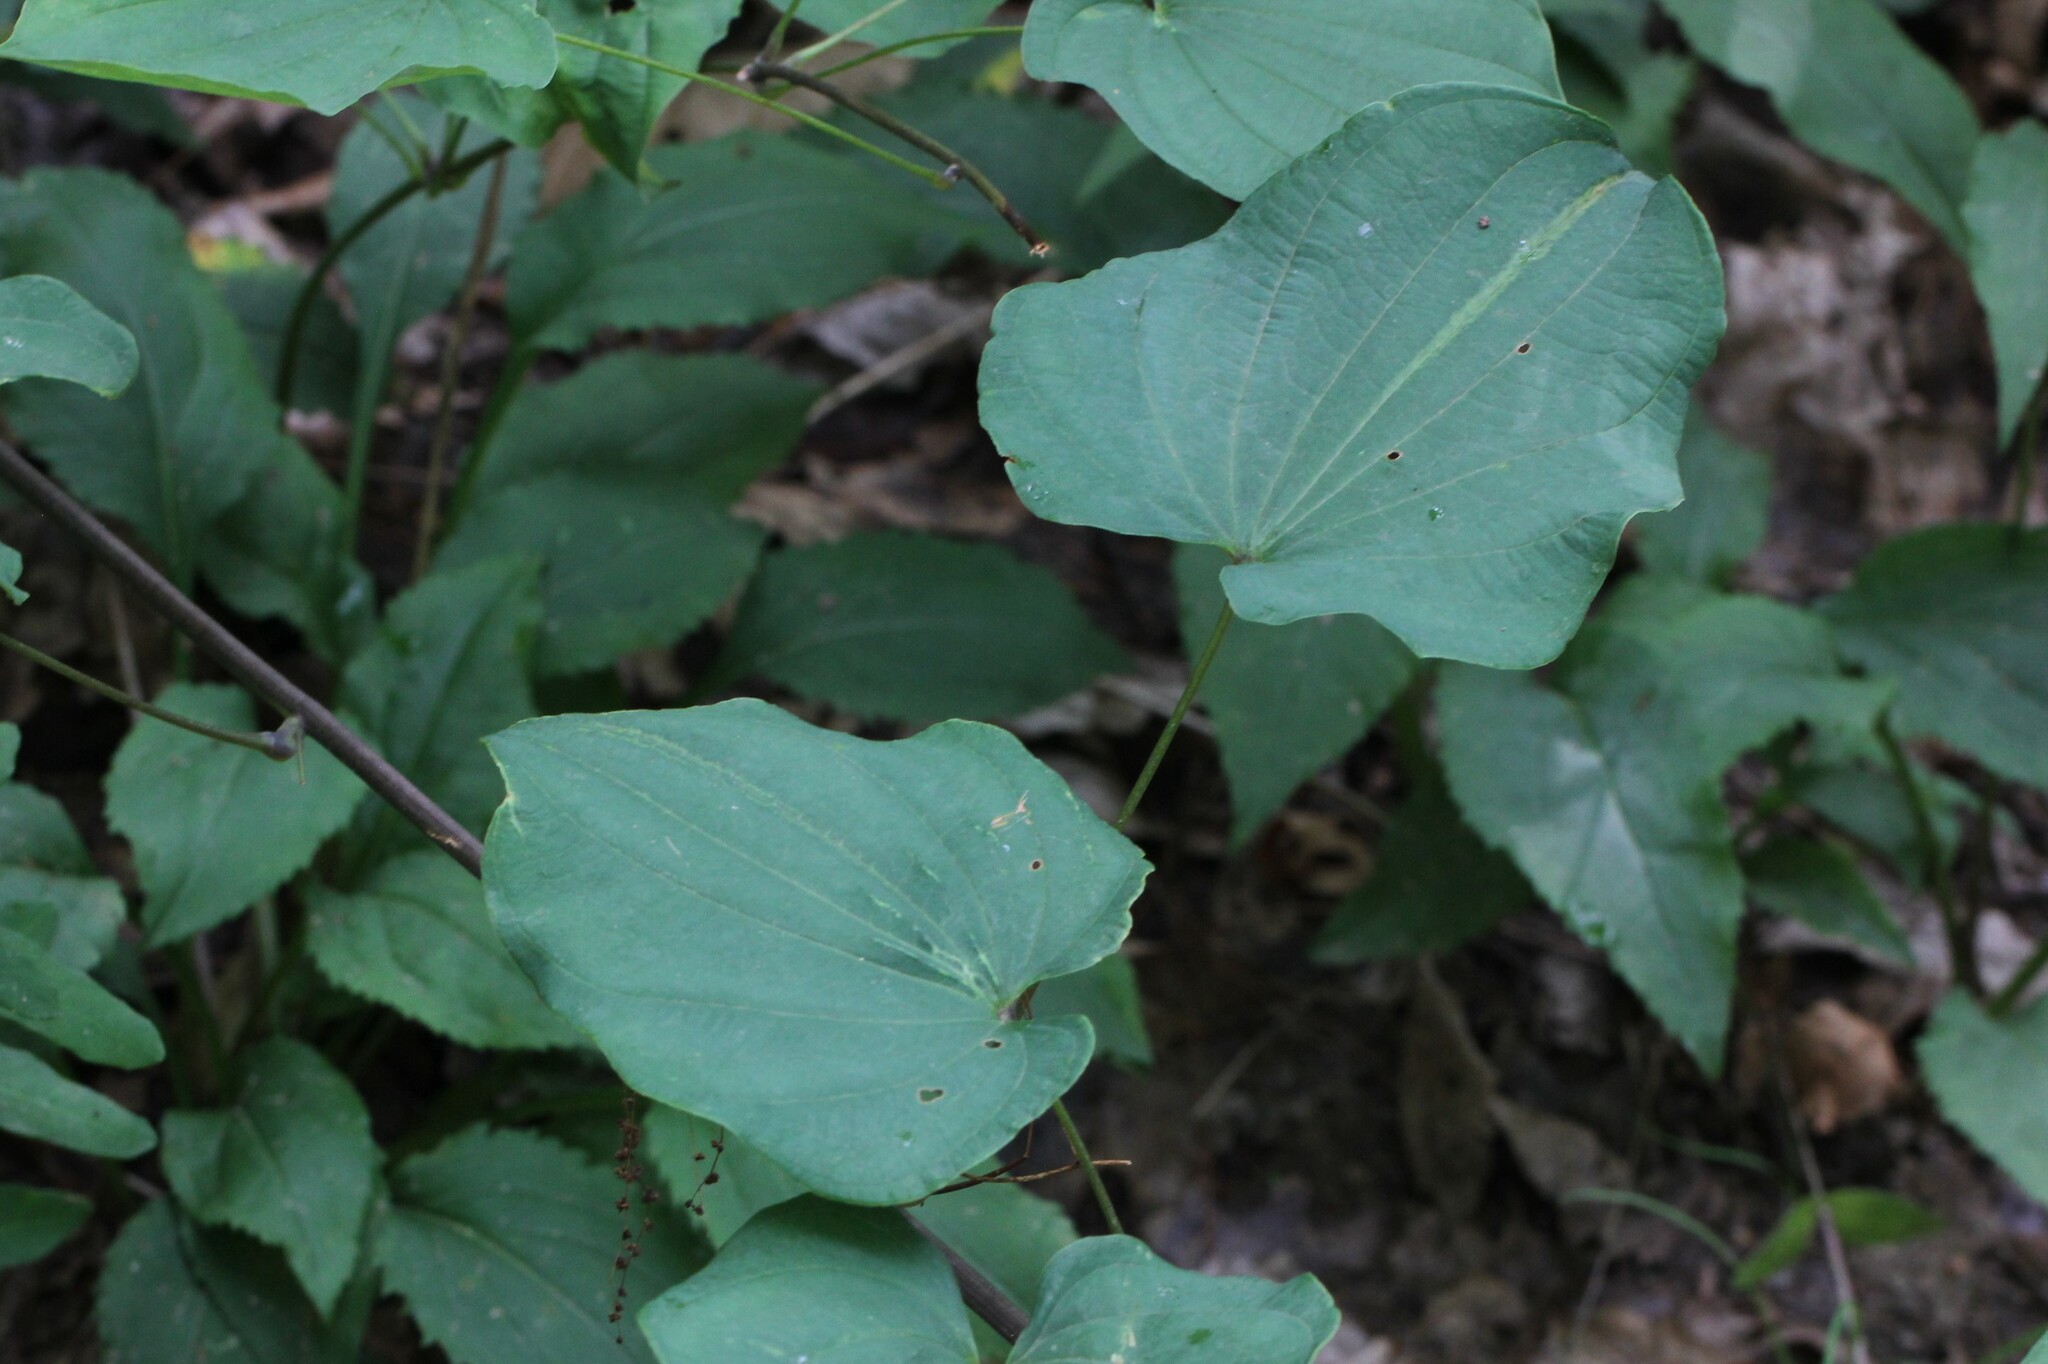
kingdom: Plantae
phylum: Tracheophyta
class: Liliopsida
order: Dioscoreales
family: Dioscoreaceae
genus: Dioscorea
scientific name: Dioscorea villosa
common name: Wild yam
